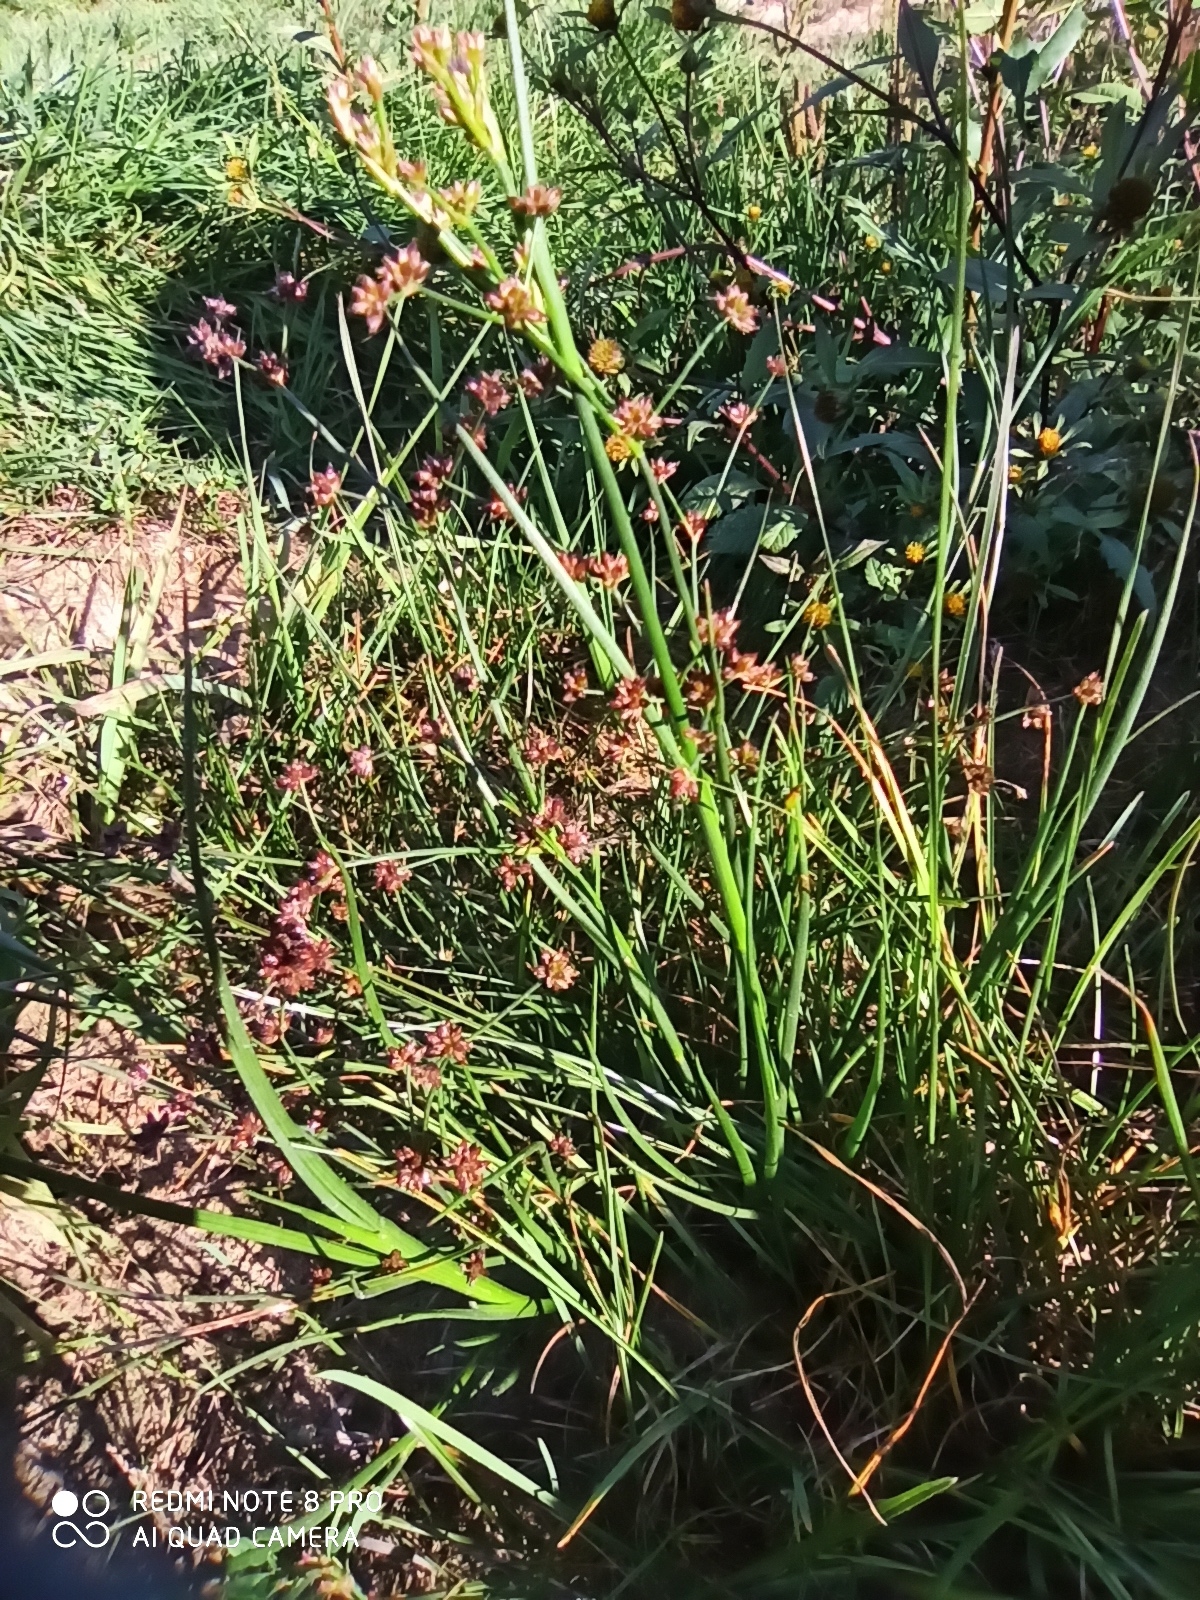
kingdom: Plantae
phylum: Tracheophyta
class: Liliopsida
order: Poales
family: Juncaceae
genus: Juncus
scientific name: Juncus articulatus
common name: Jointed rush
